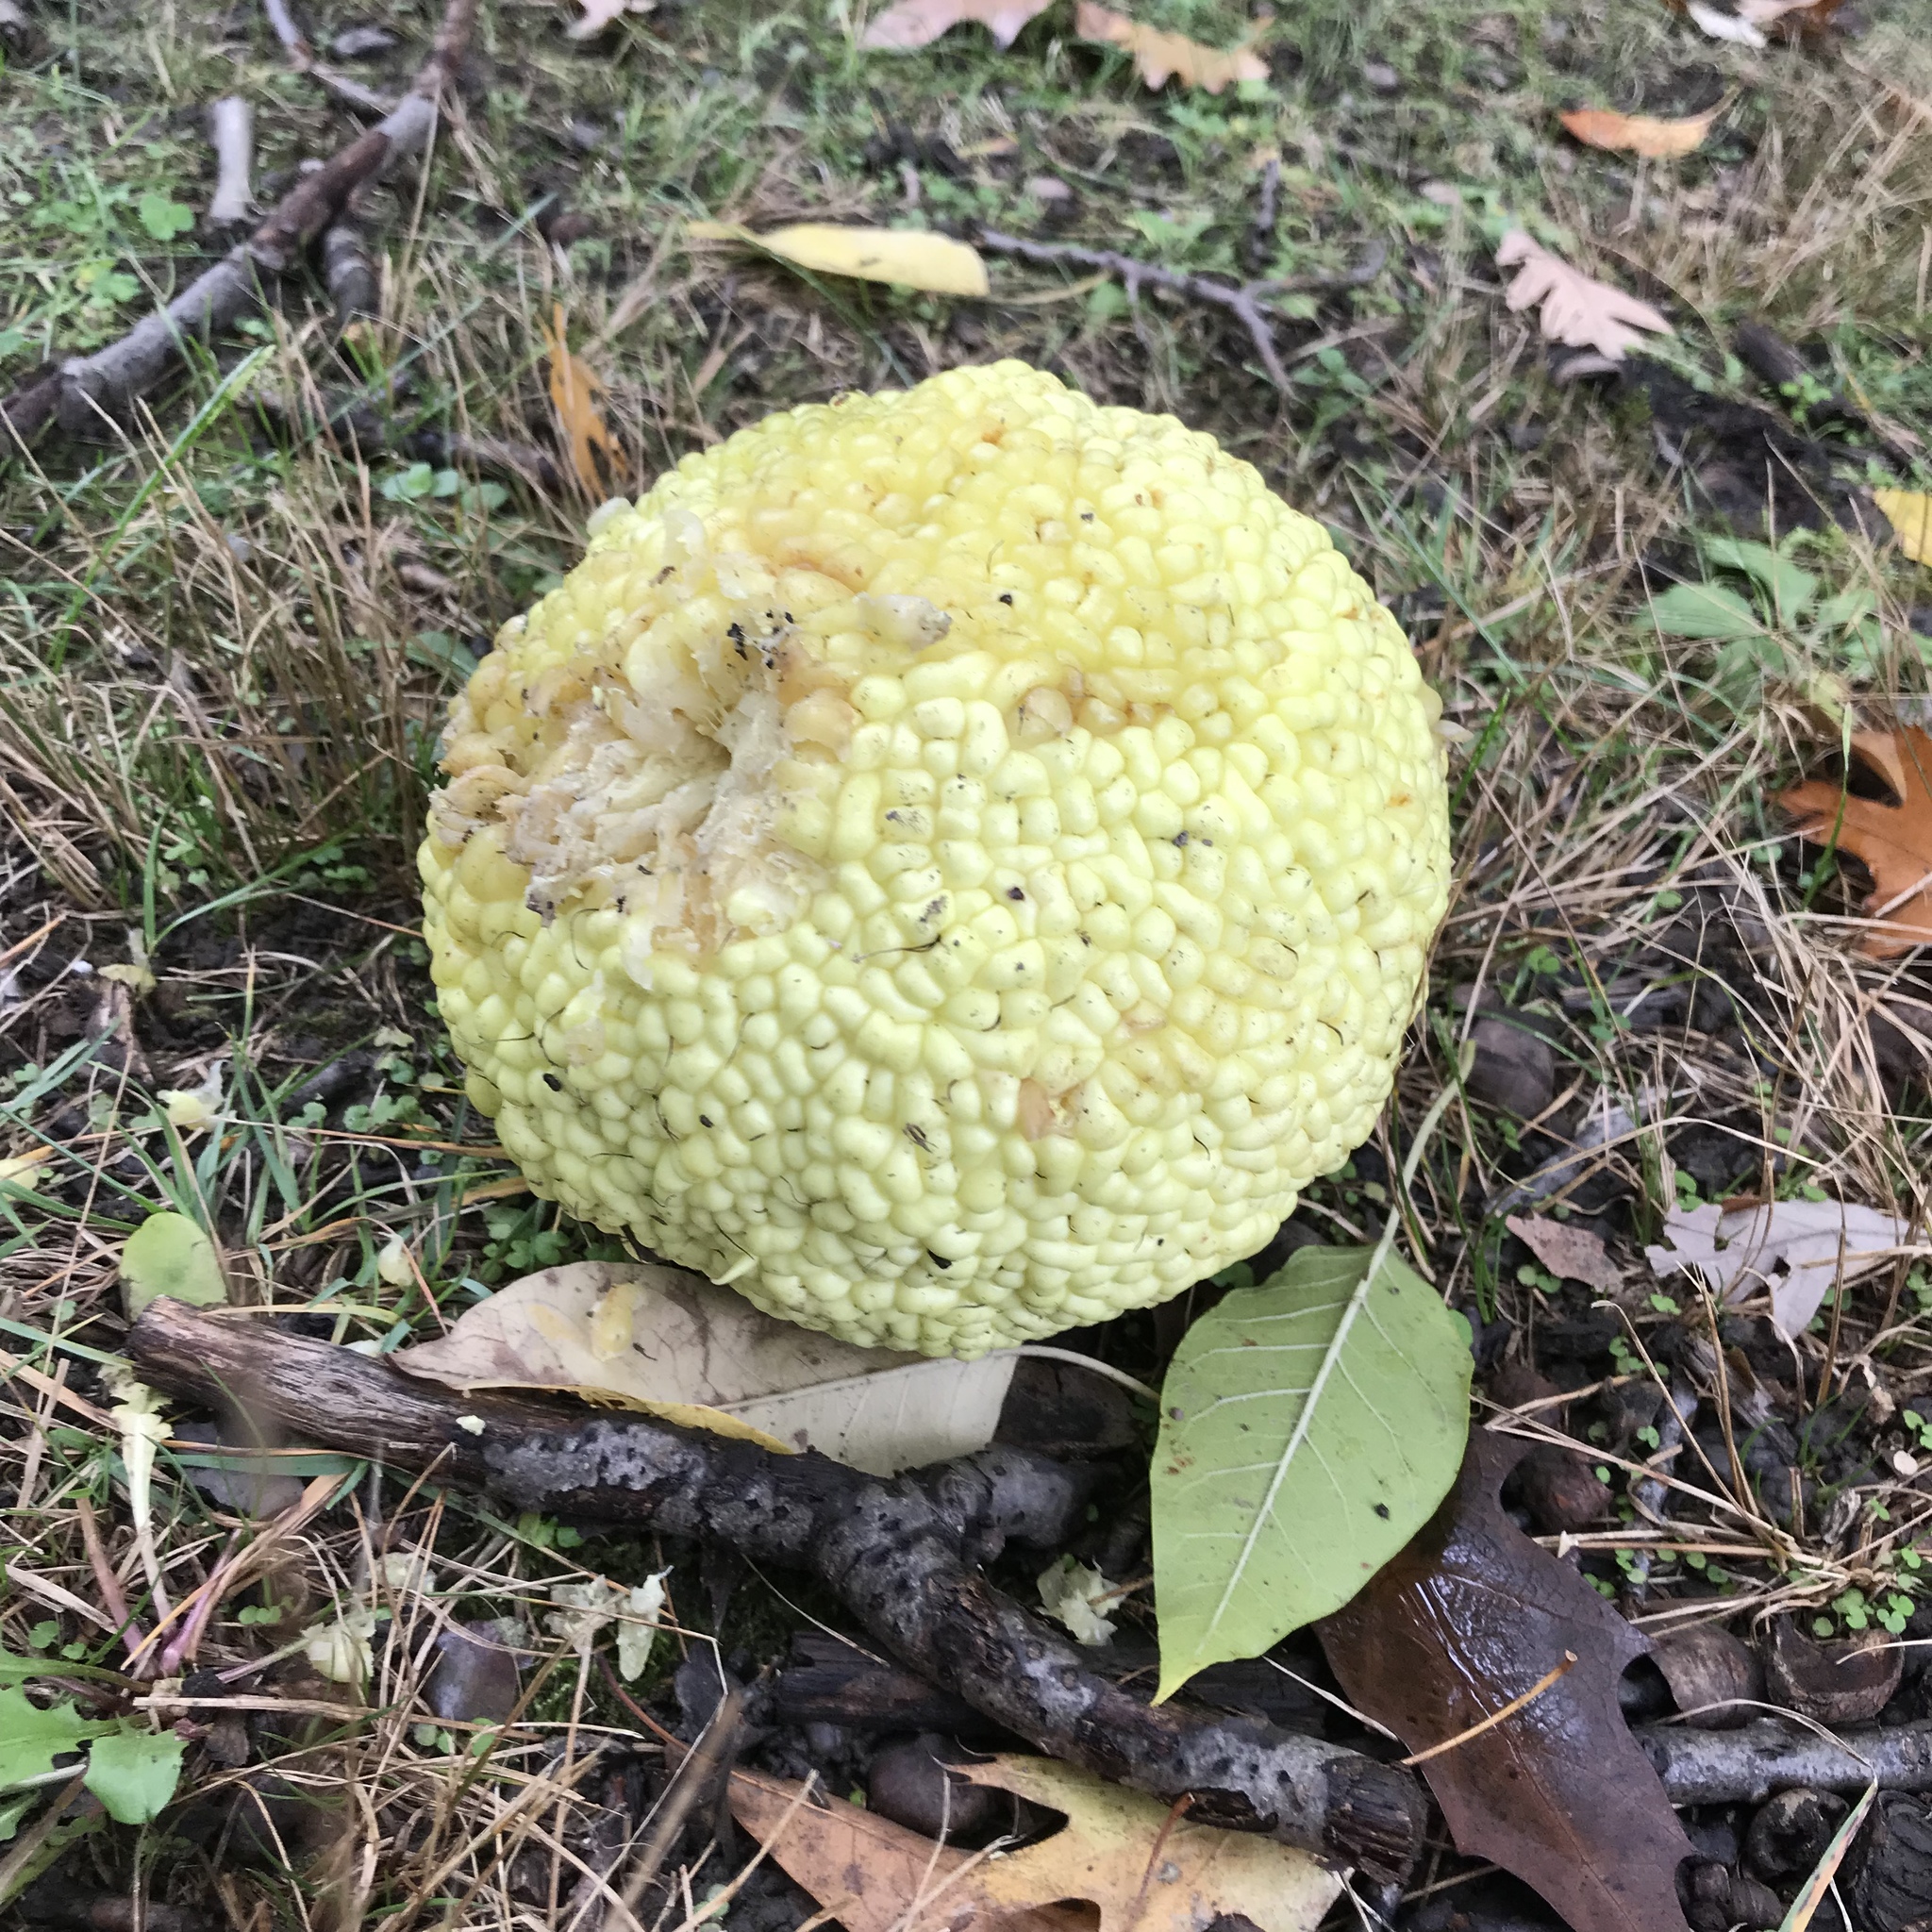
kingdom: Plantae
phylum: Tracheophyta
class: Magnoliopsida
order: Rosales
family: Moraceae
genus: Maclura
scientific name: Maclura pomifera
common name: Osage-orange
